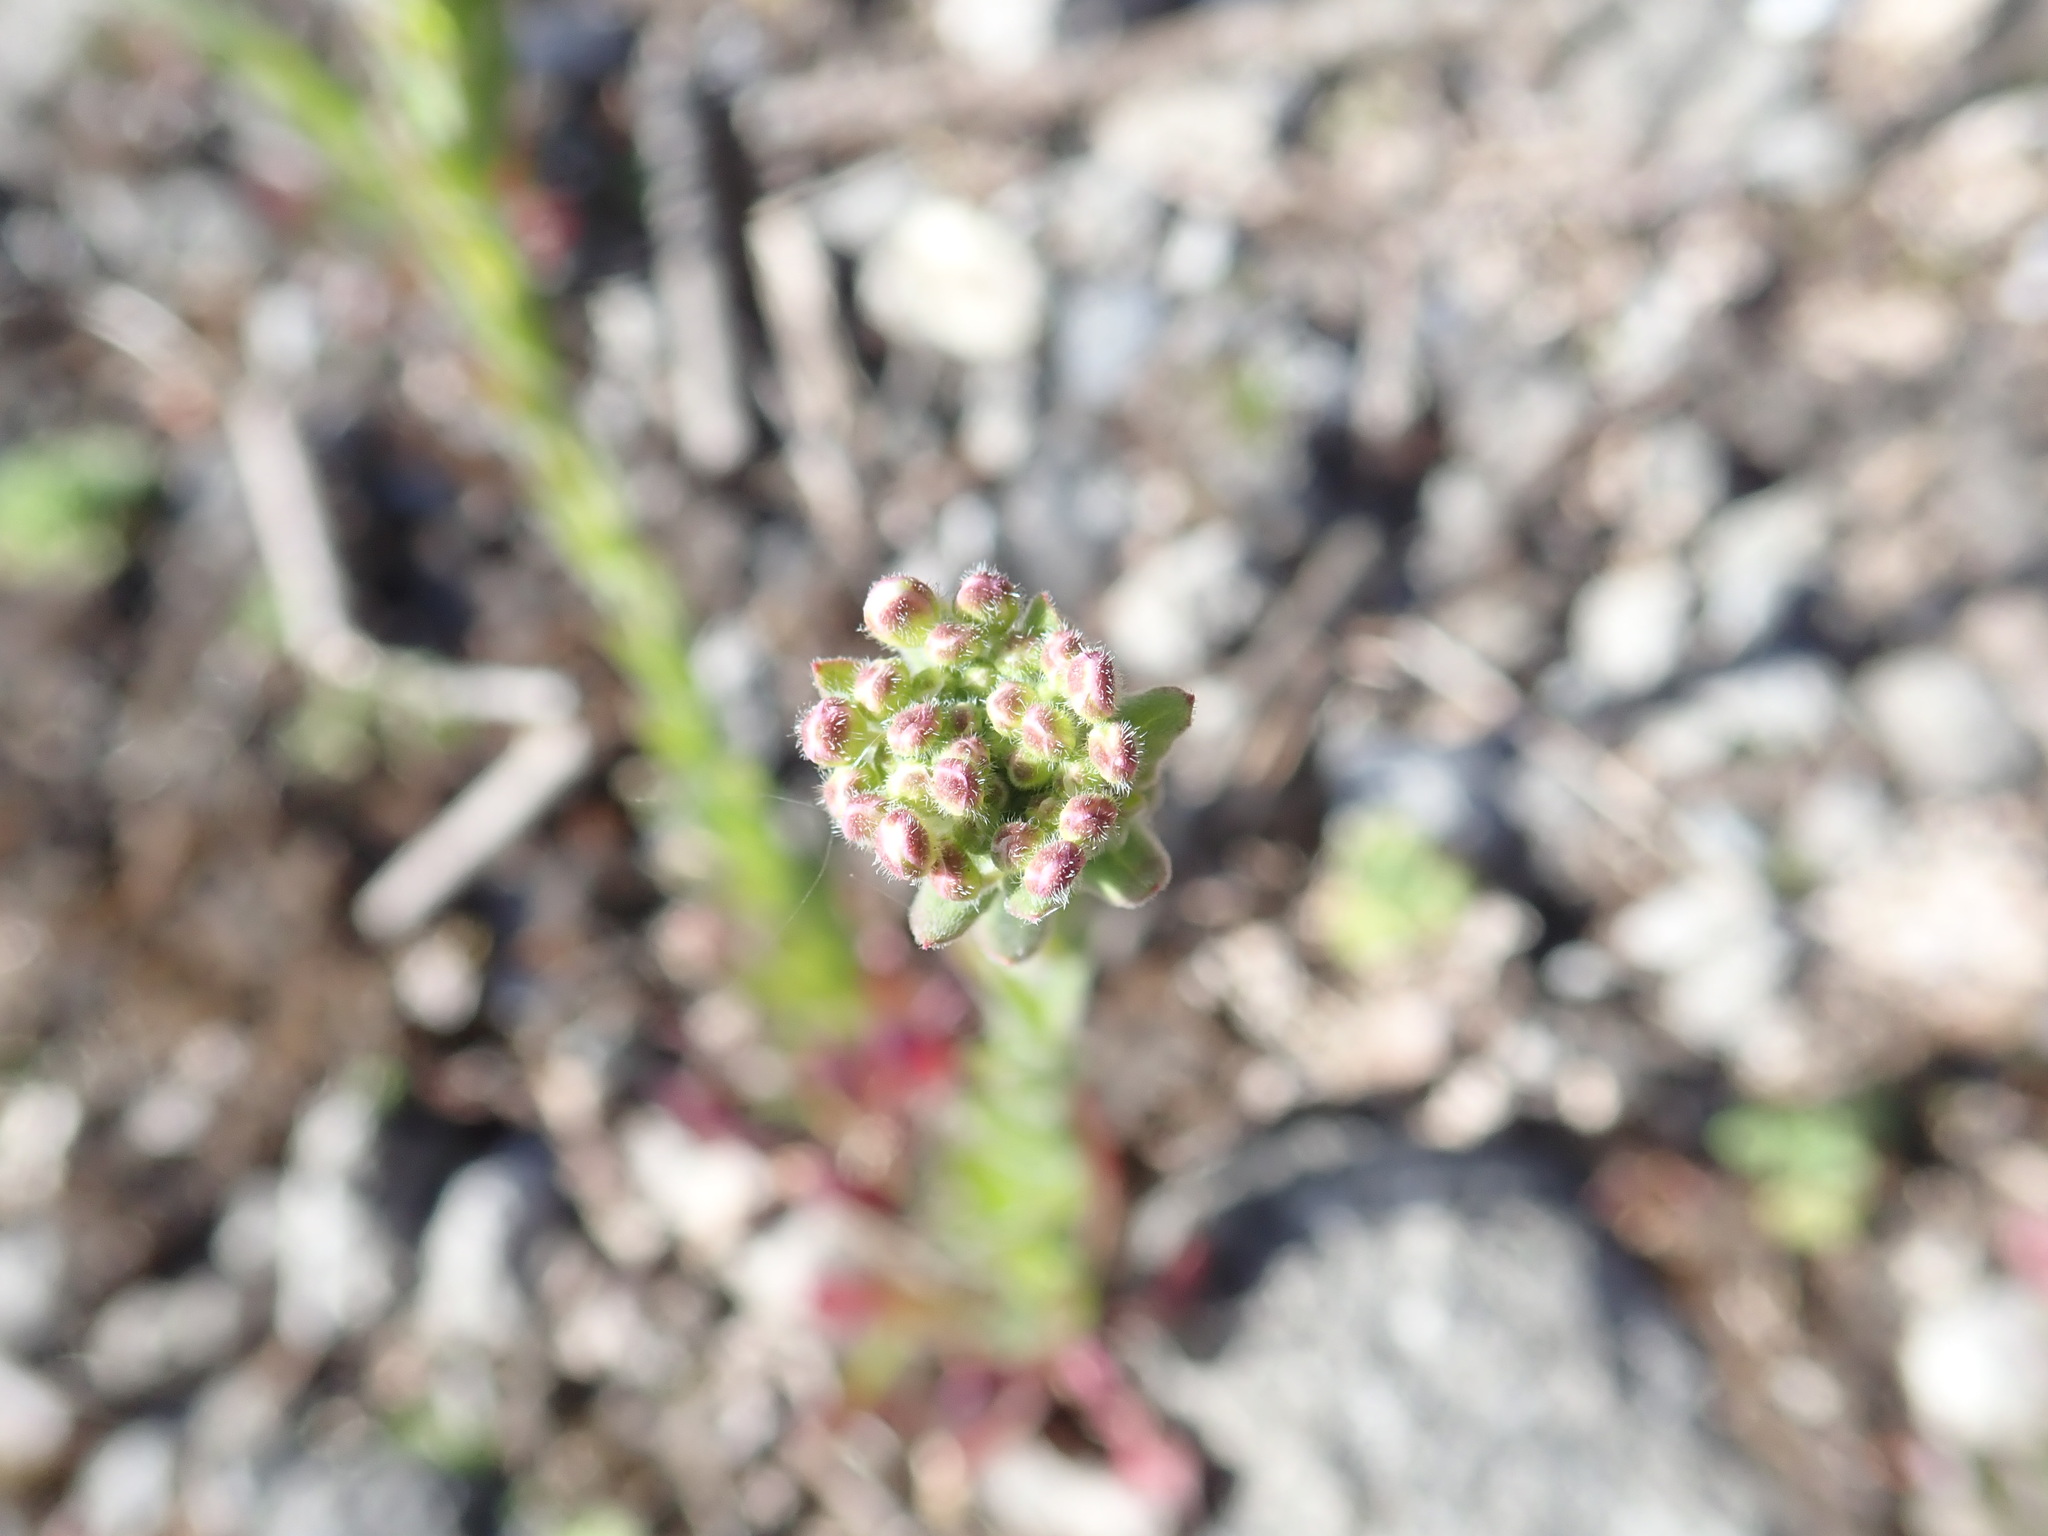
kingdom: Plantae
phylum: Tracheophyta
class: Magnoliopsida
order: Brassicales
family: Brassicaceae
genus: Lepidium
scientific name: Lepidium campestre
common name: Field pepperwort
